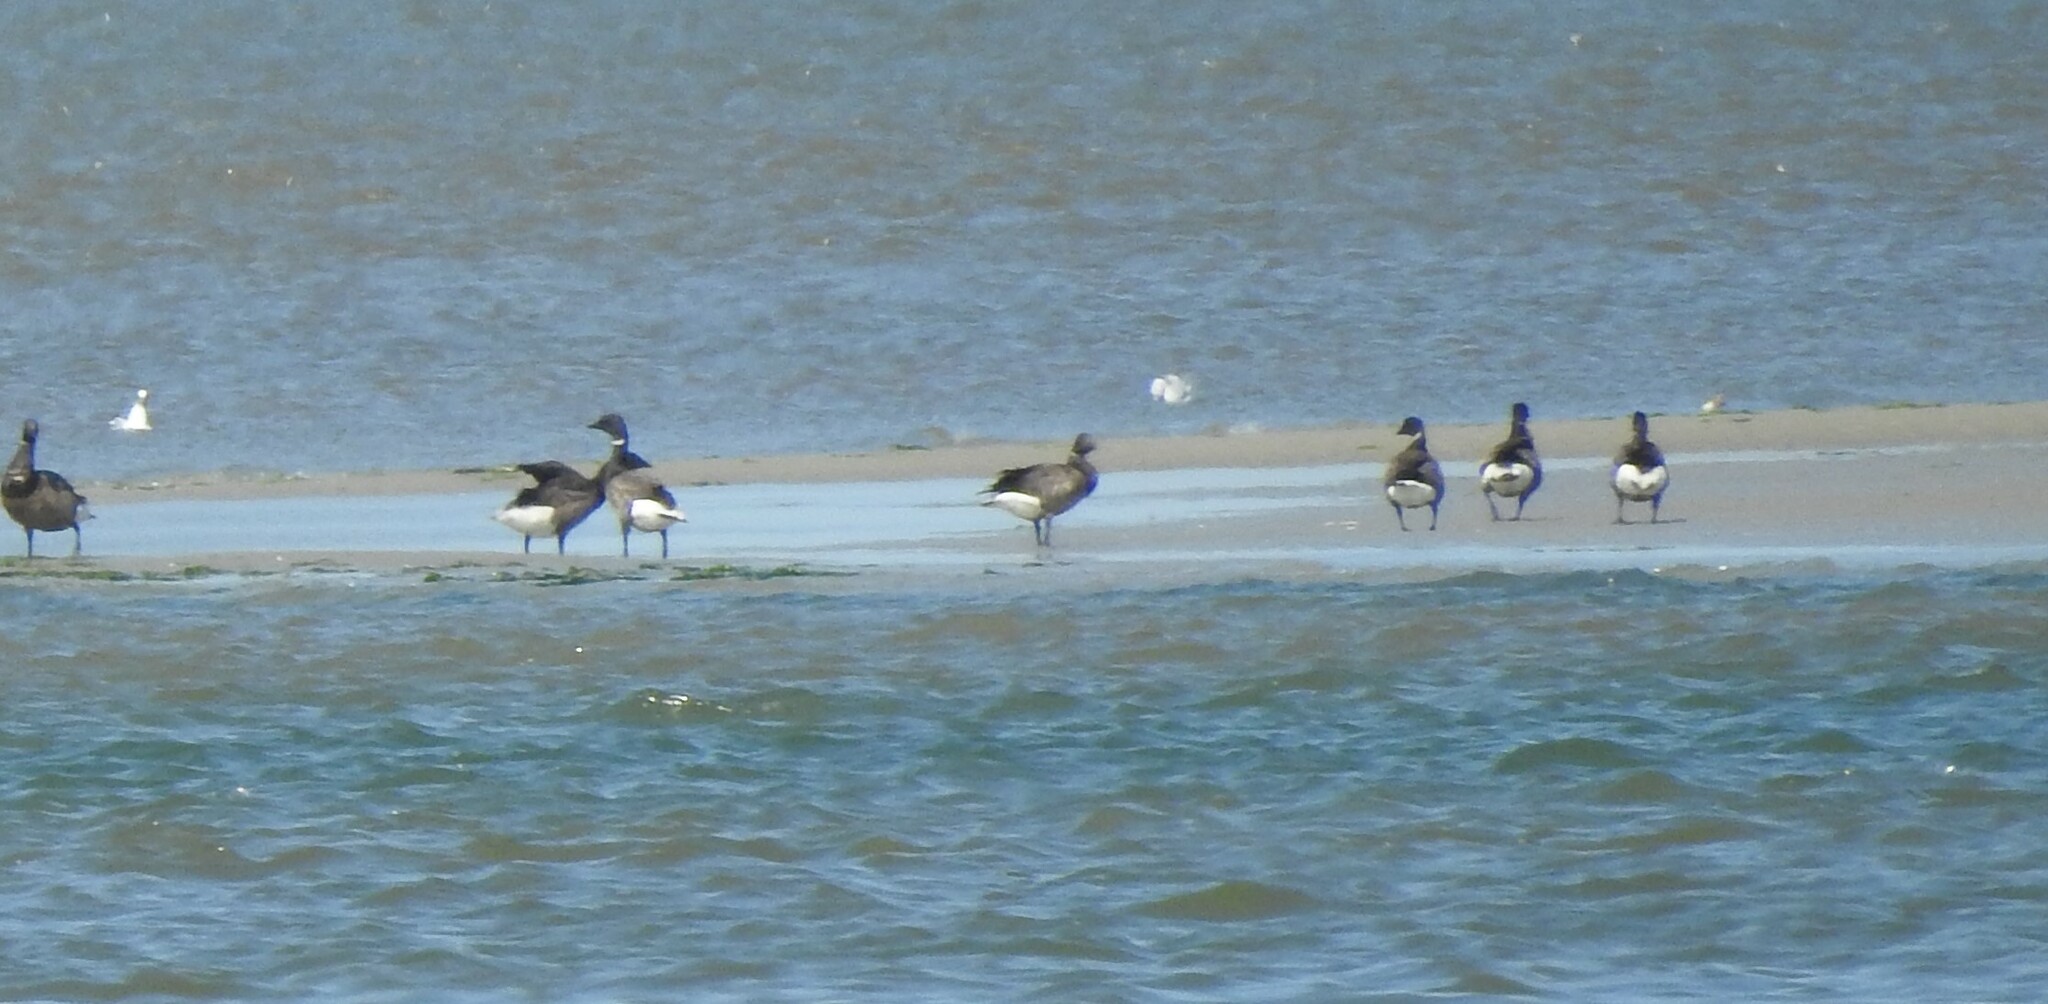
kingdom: Animalia
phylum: Chordata
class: Aves
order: Anseriformes
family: Anatidae
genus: Branta
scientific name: Branta bernicla
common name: Brant goose
